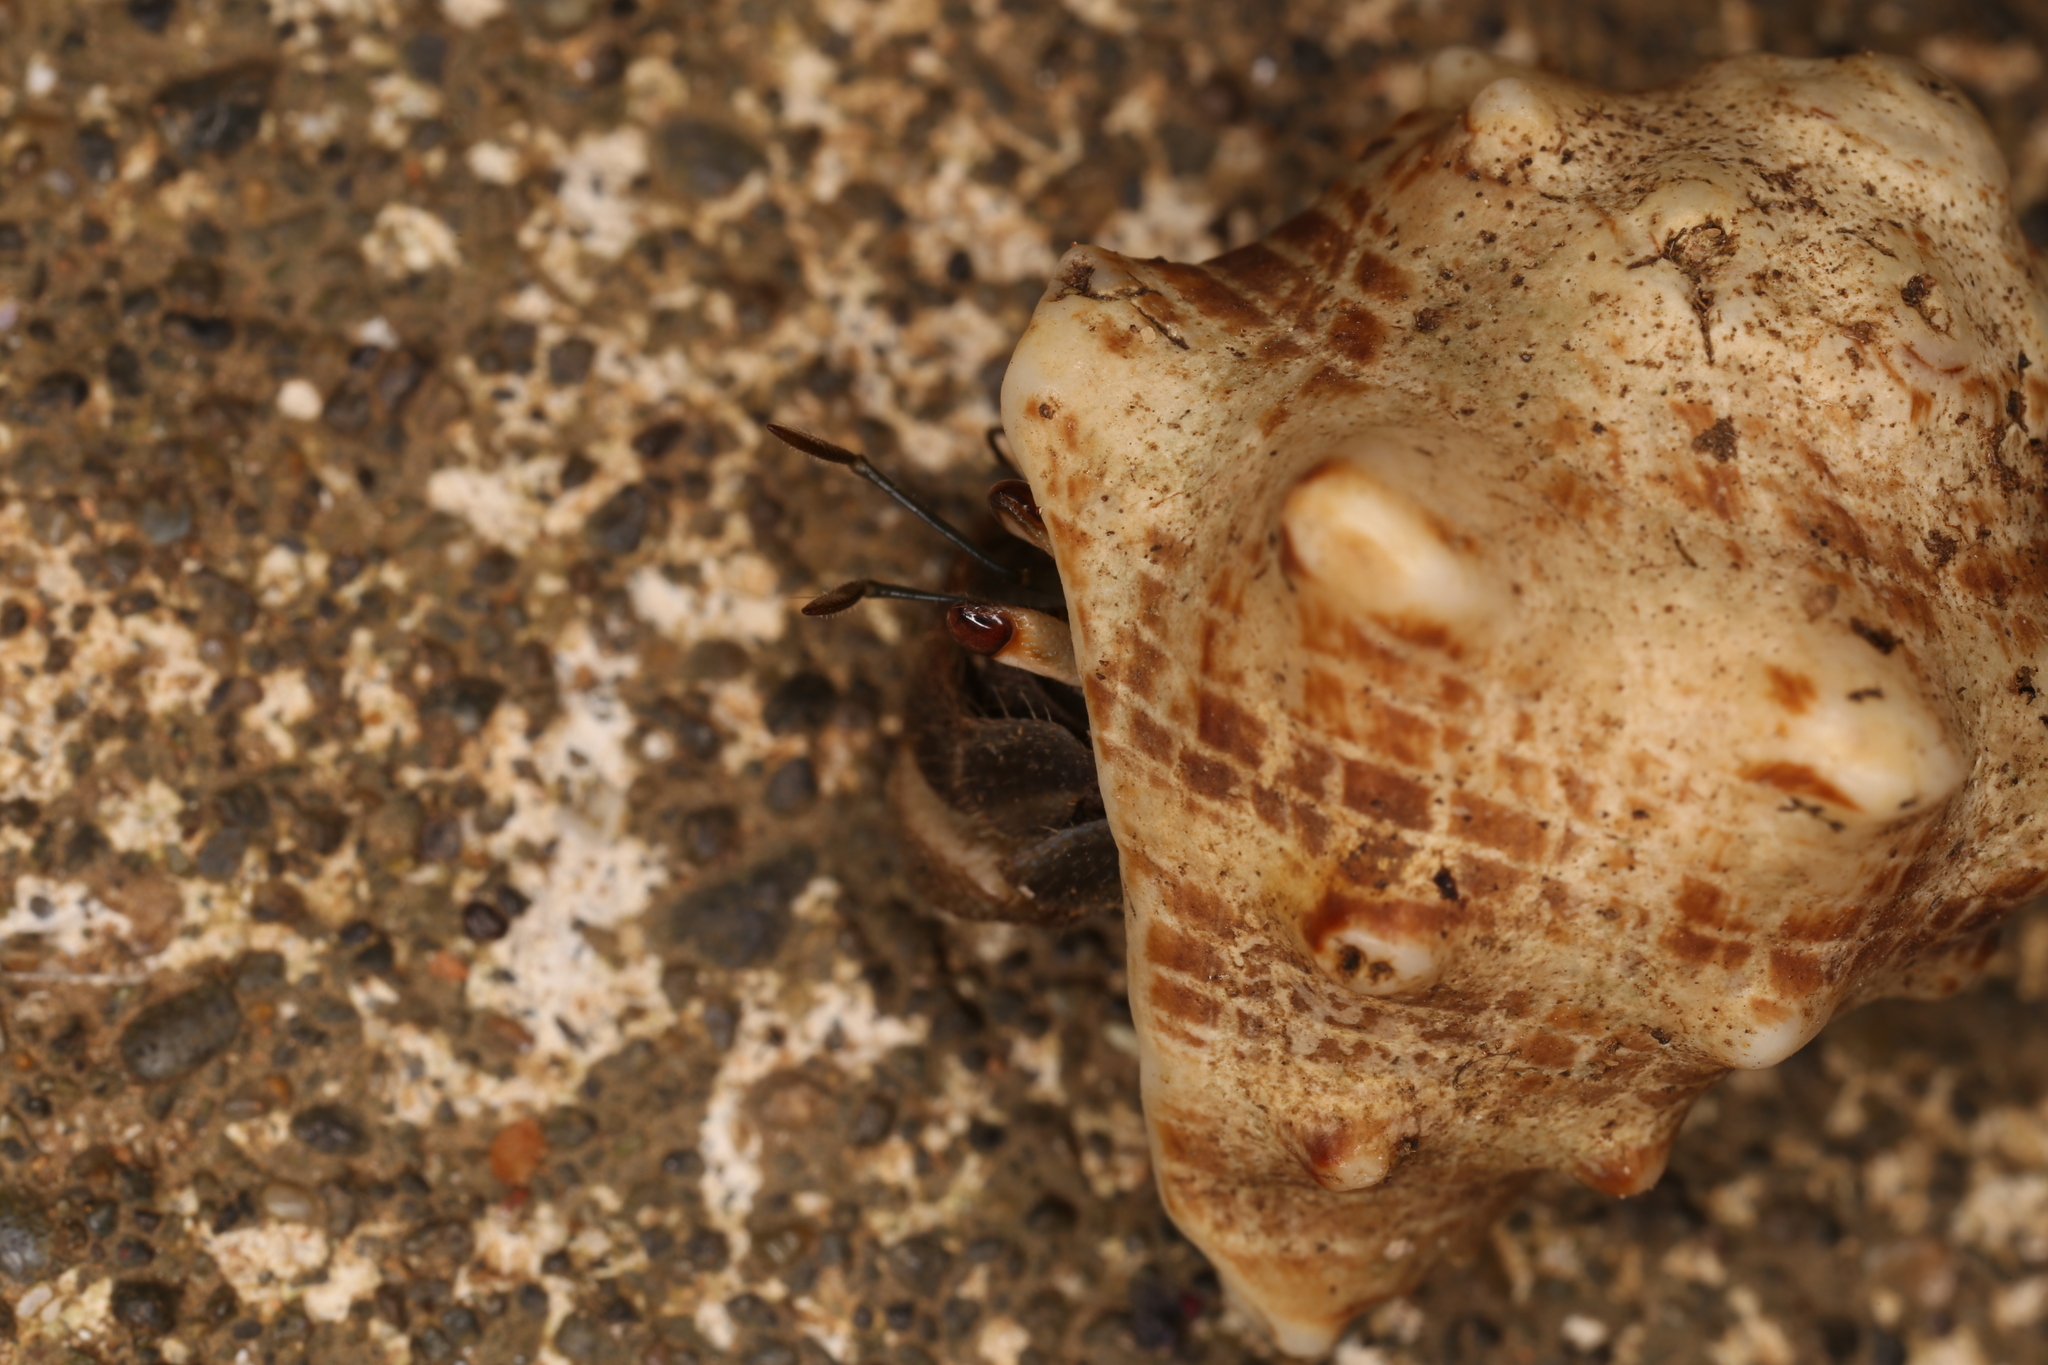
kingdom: Animalia
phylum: Arthropoda
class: Malacostraca
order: Decapoda
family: Coenobitidae
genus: Coenobita
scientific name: Coenobita compressus
